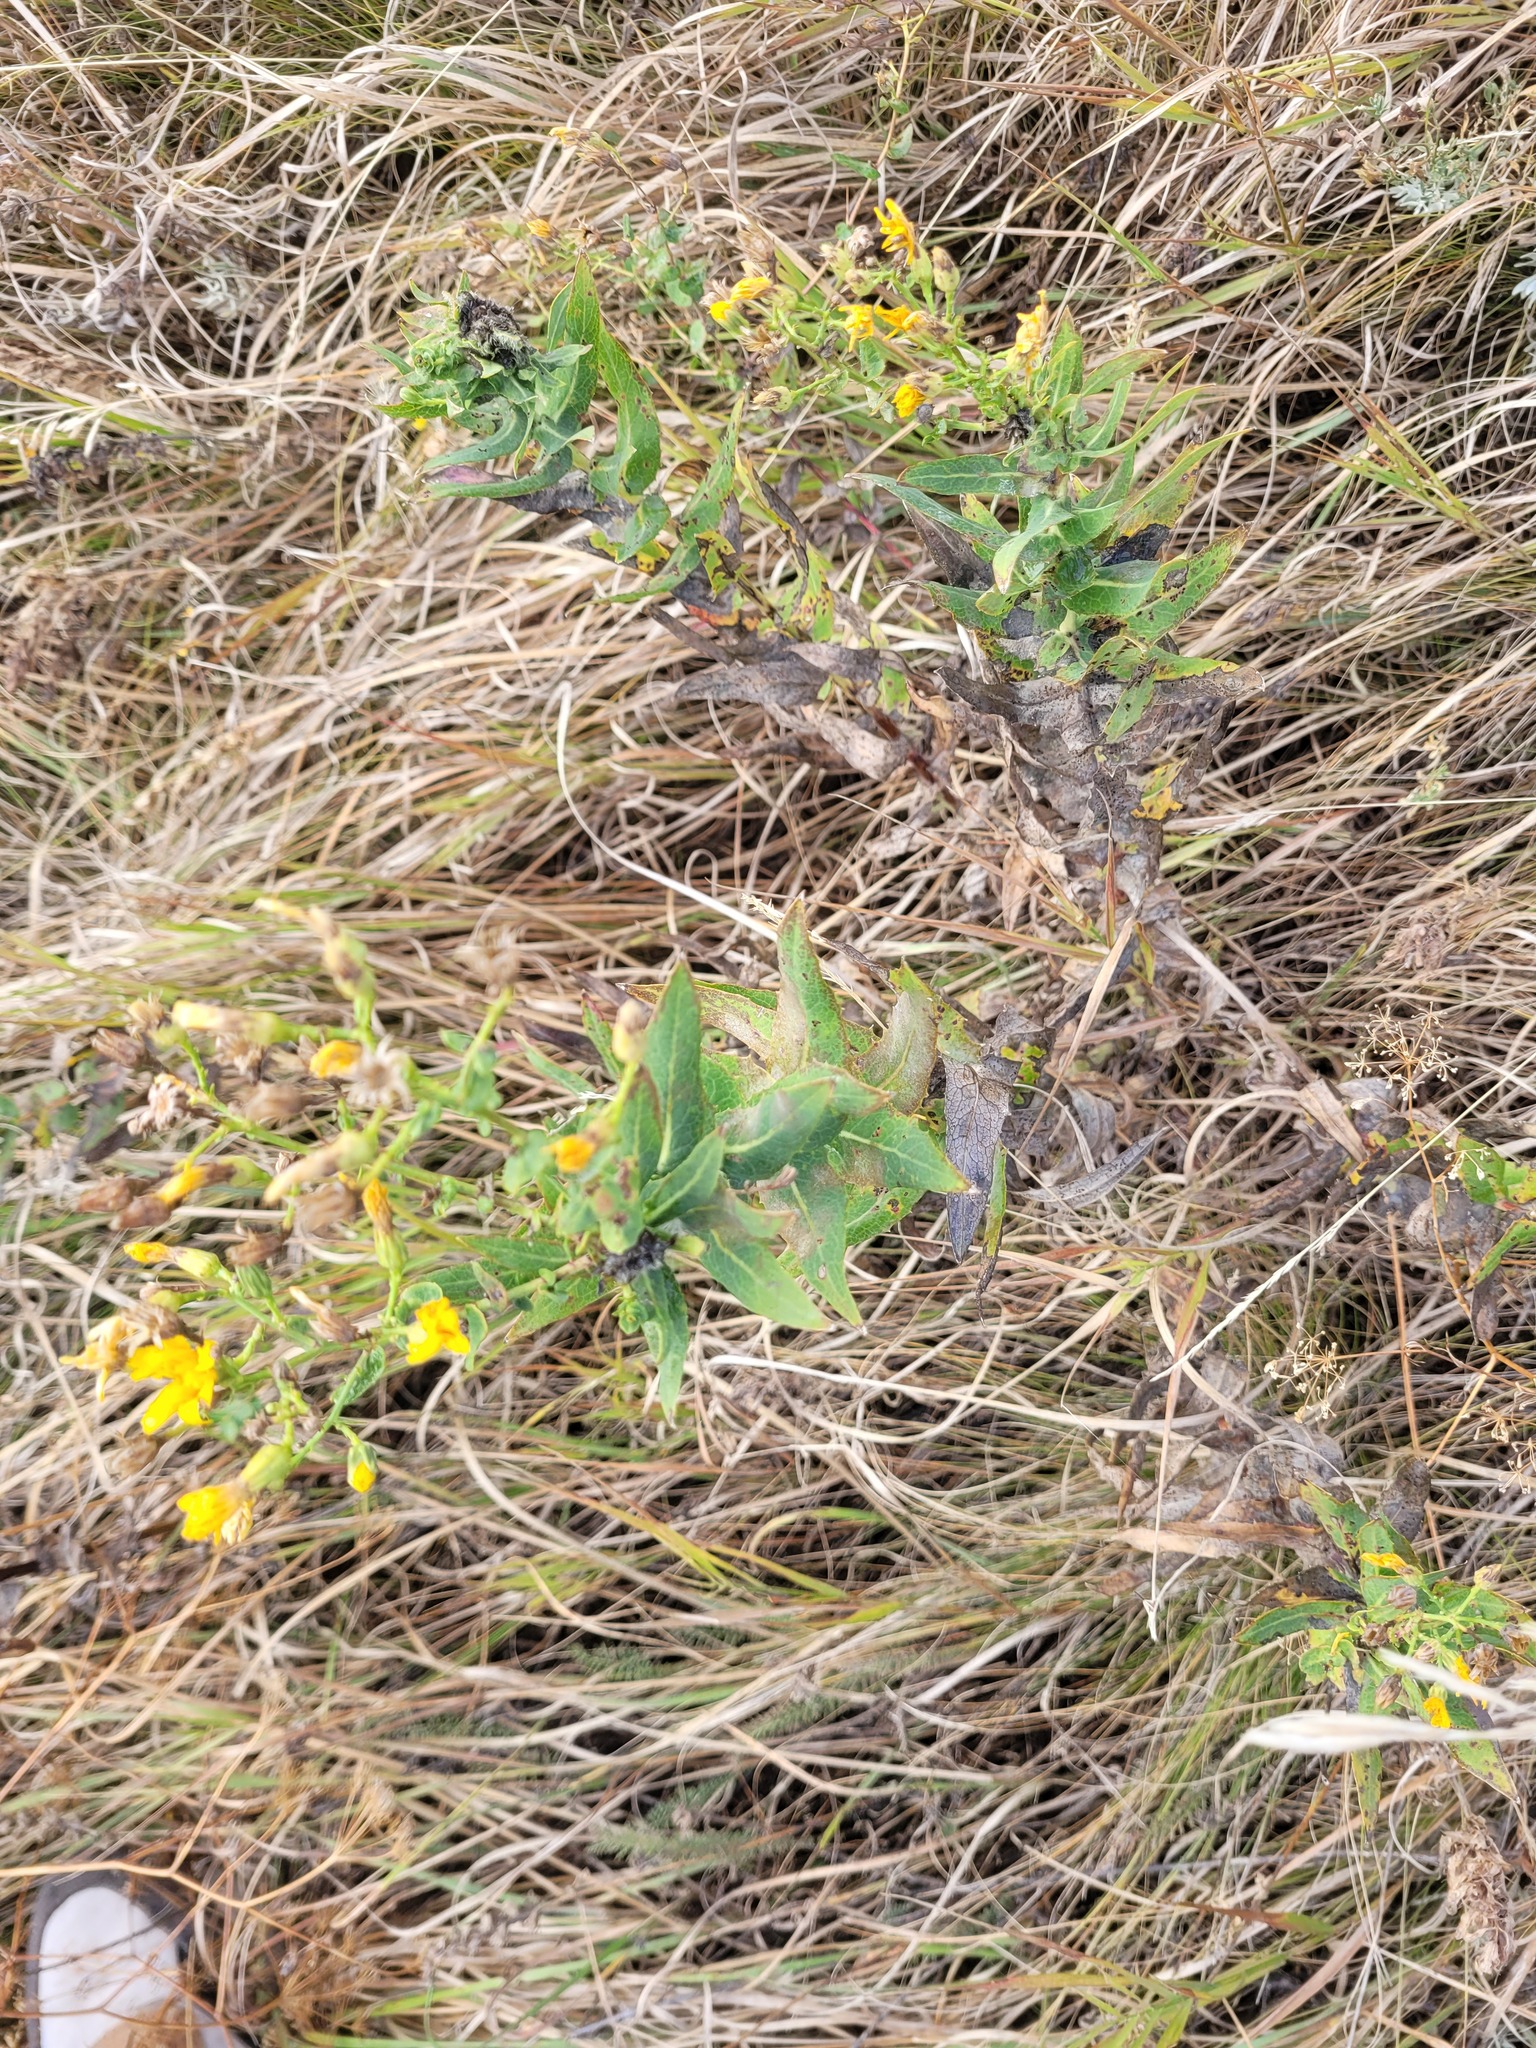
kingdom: Plantae
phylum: Tracheophyta
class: Magnoliopsida
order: Asterales
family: Asteraceae
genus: Hieracium
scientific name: Hieracium virosum
